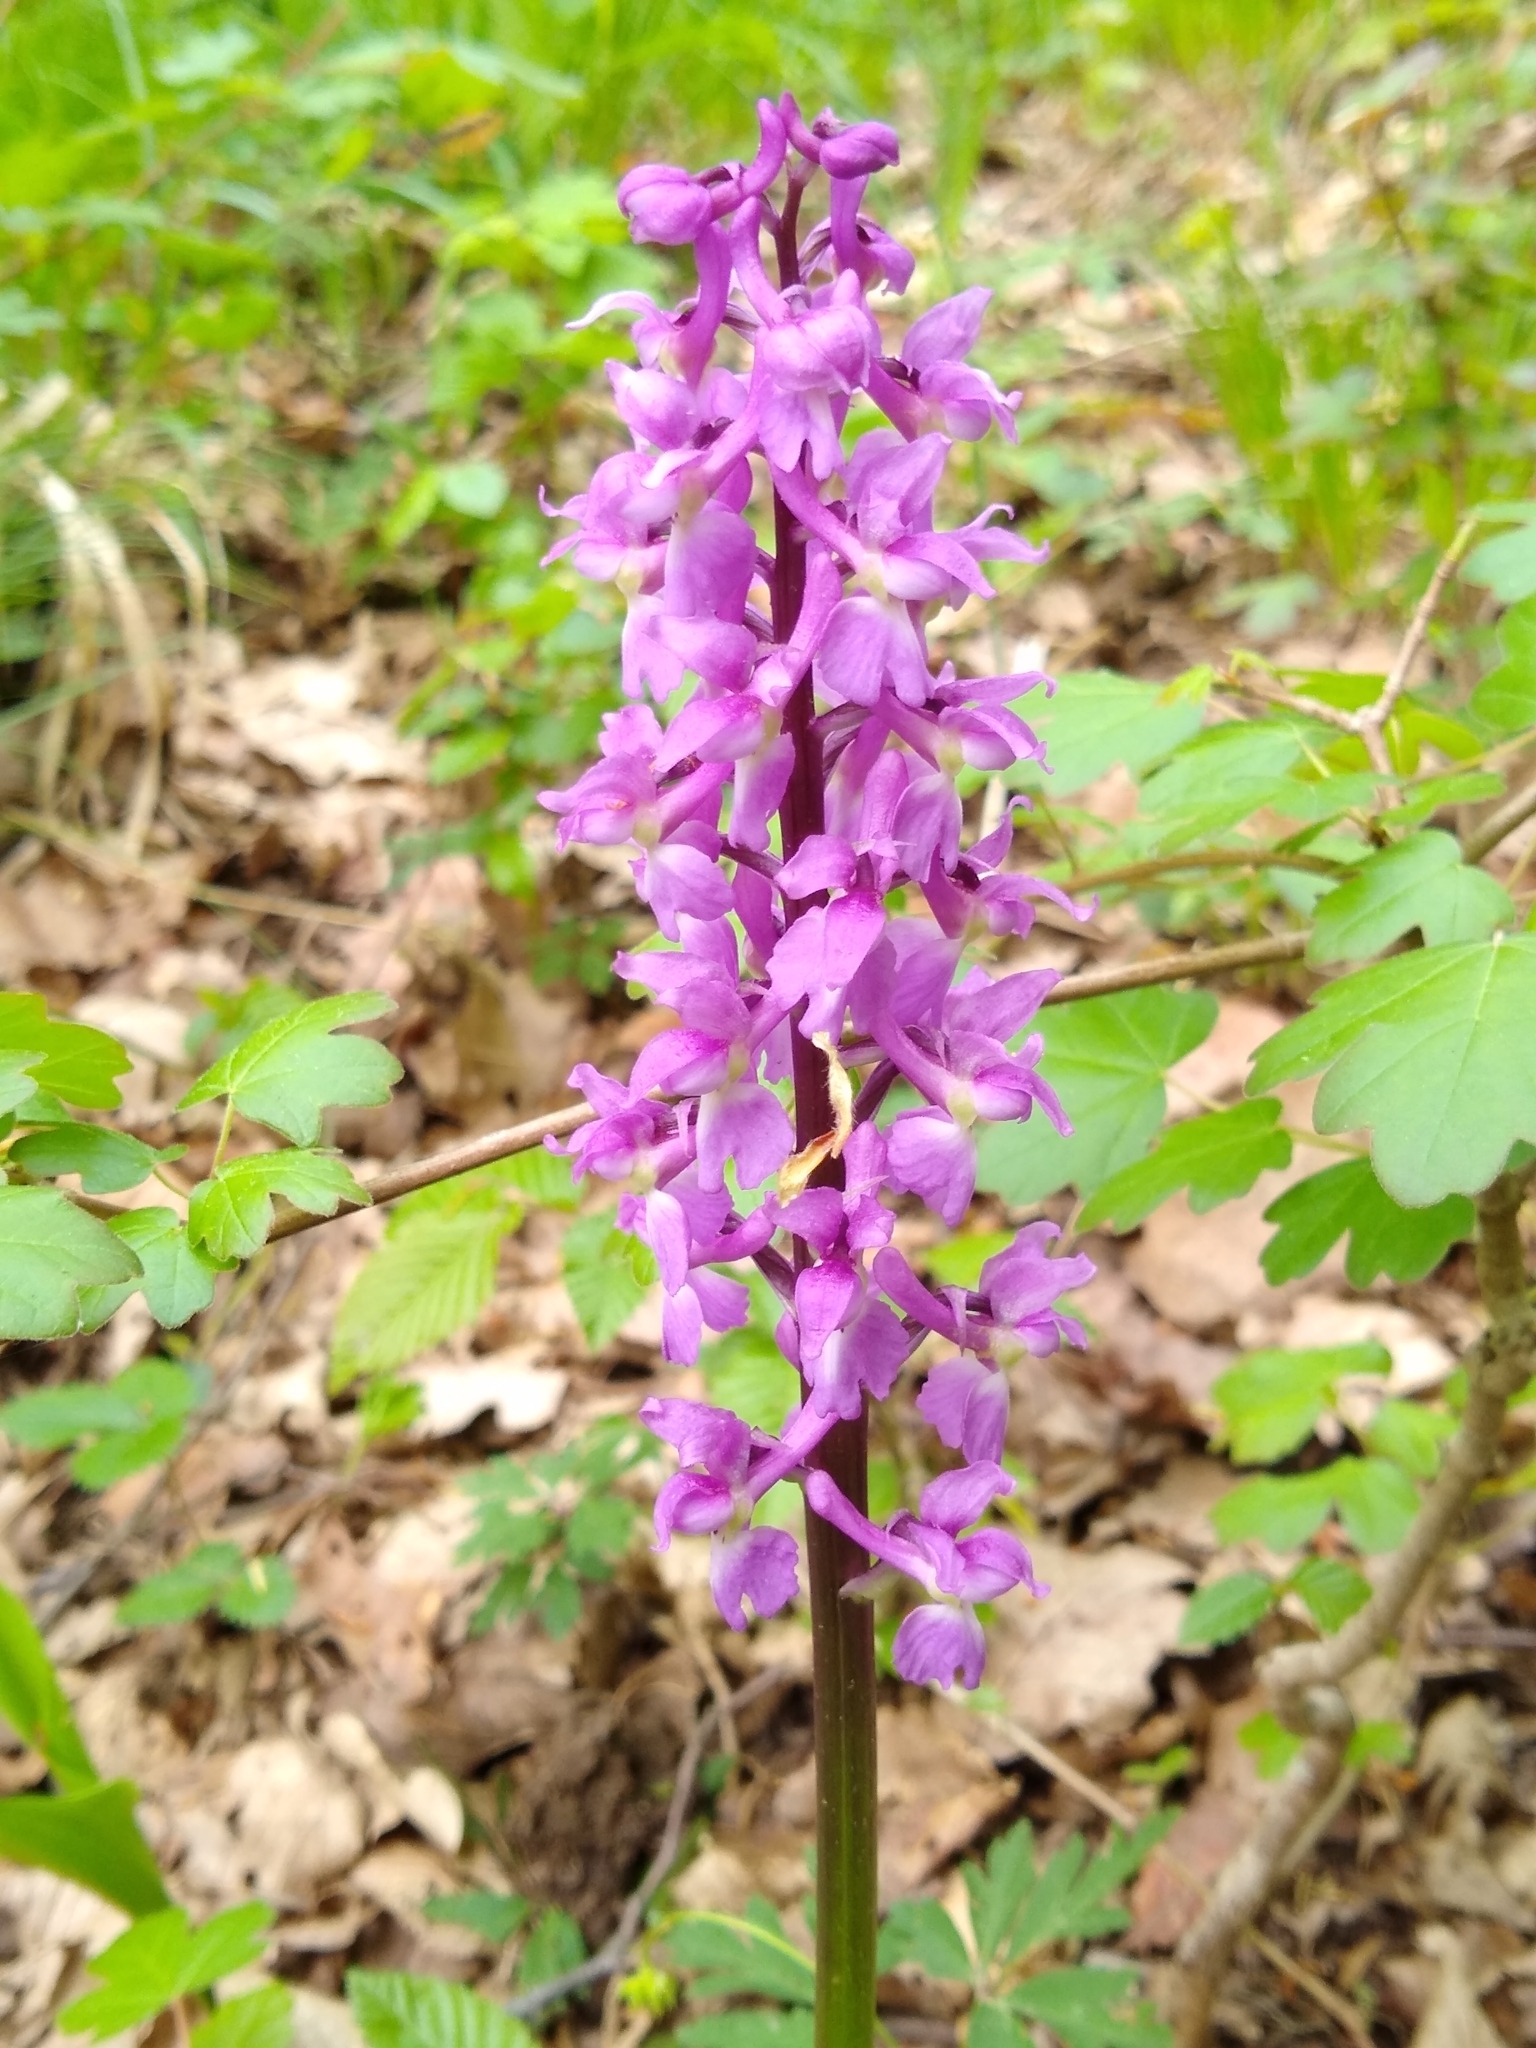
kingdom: Plantae
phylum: Tracheophyta
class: Liliopsida
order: Asparagales
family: Orchidaceae
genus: Orchis
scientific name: Orchis mascula
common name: Early-purple orchid
